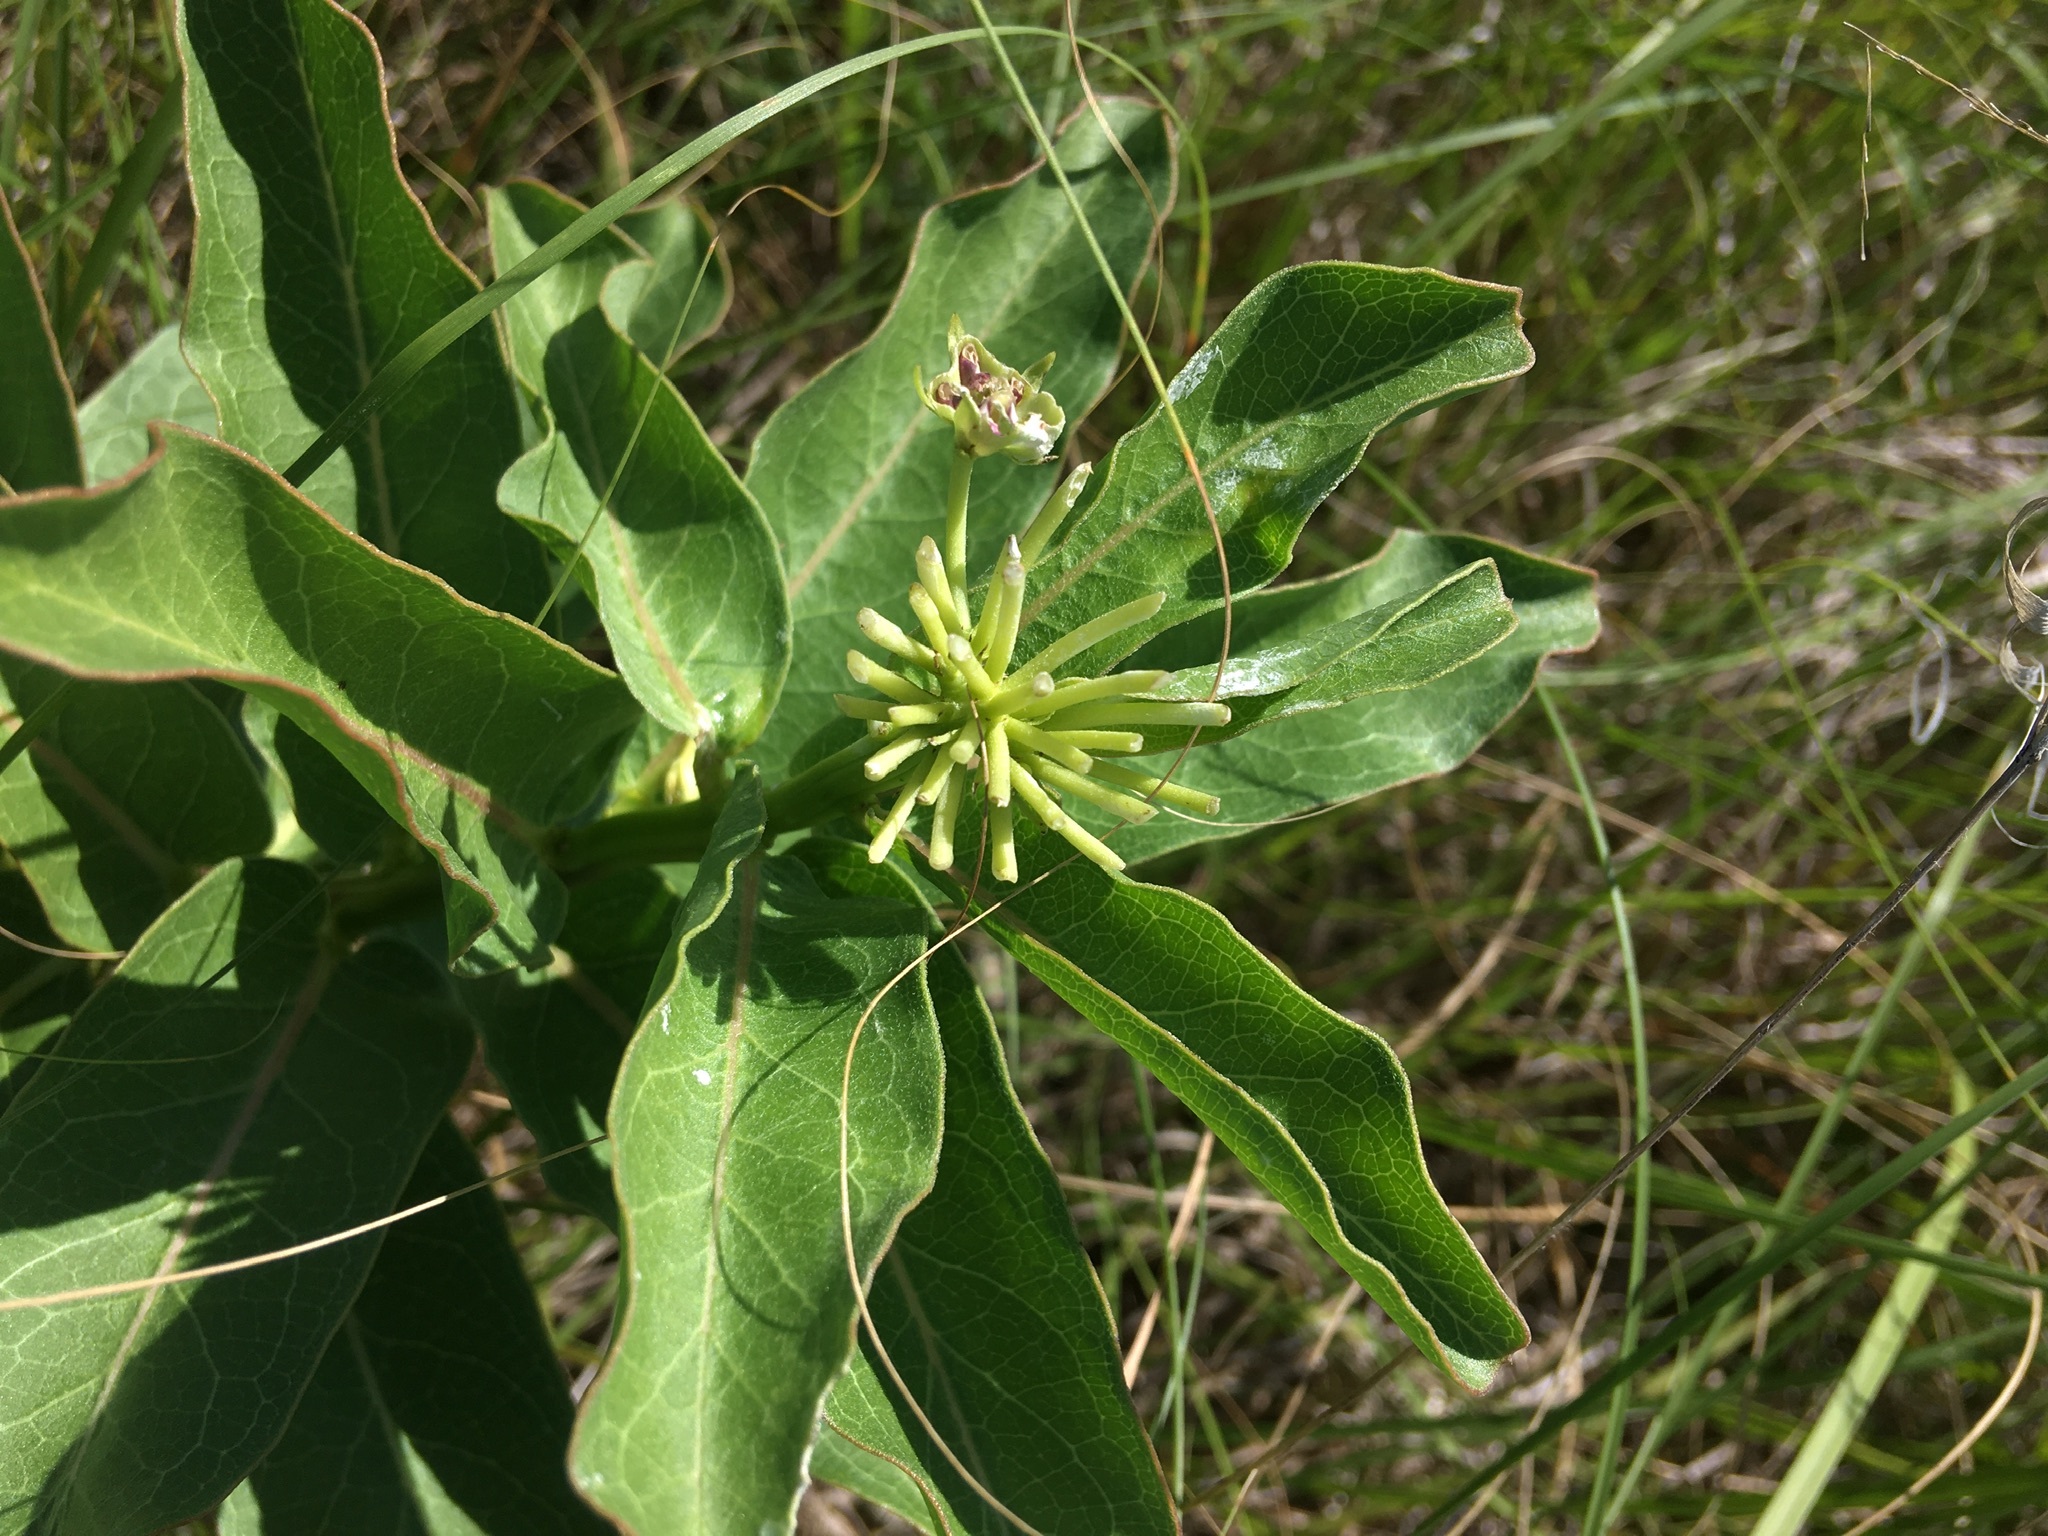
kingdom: Plantae
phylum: Tracheophyta
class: Magnoliopsida
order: Gentianales
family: Apocynaceae
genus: Asclepias
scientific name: Asclepias viridis
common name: Antelope-horns
